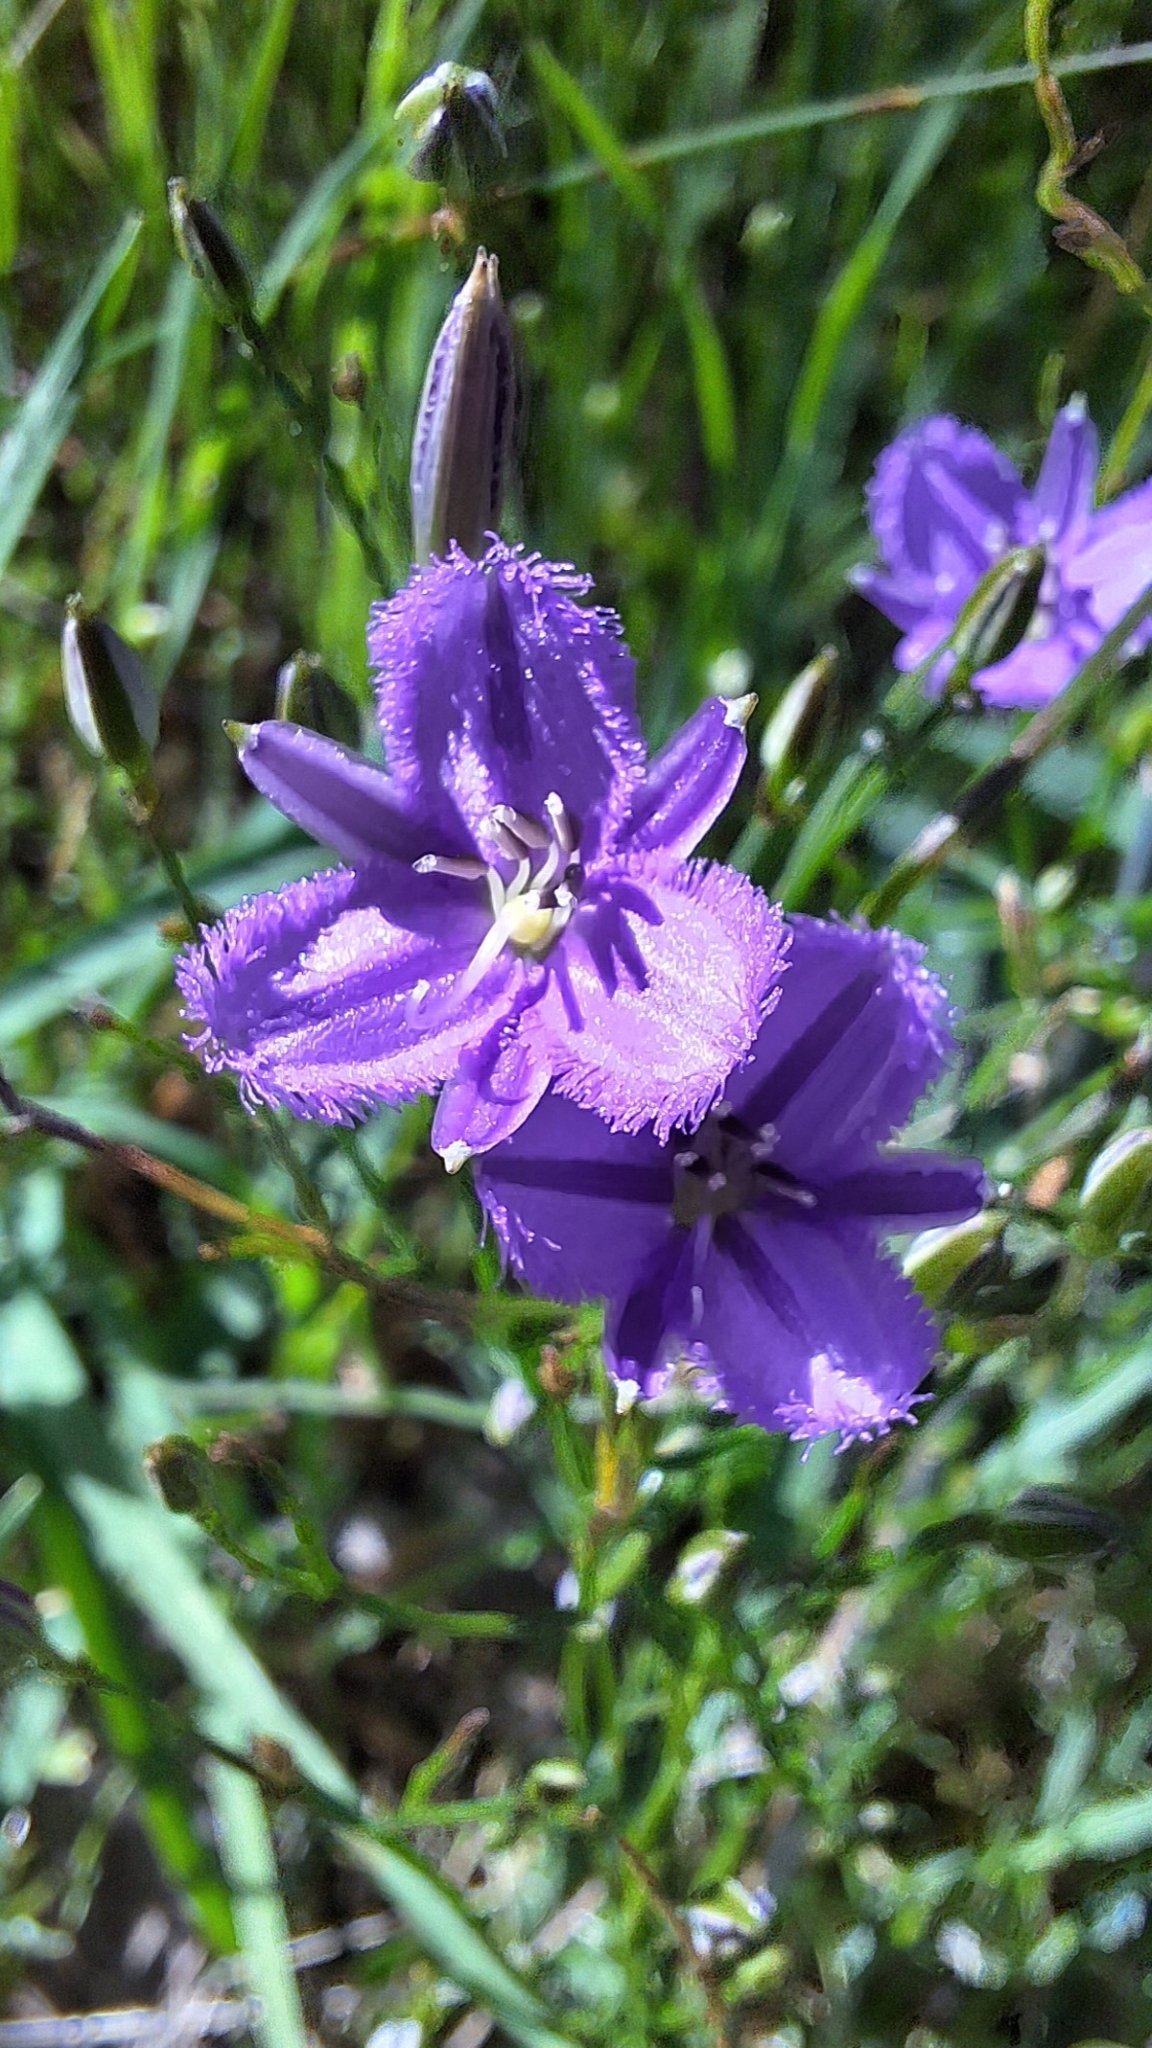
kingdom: Plantae
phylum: Tracheophyta
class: Liliopsida
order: Asparagales
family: Asparagaceae
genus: Thysanotus
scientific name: Thysanotus patersonii
